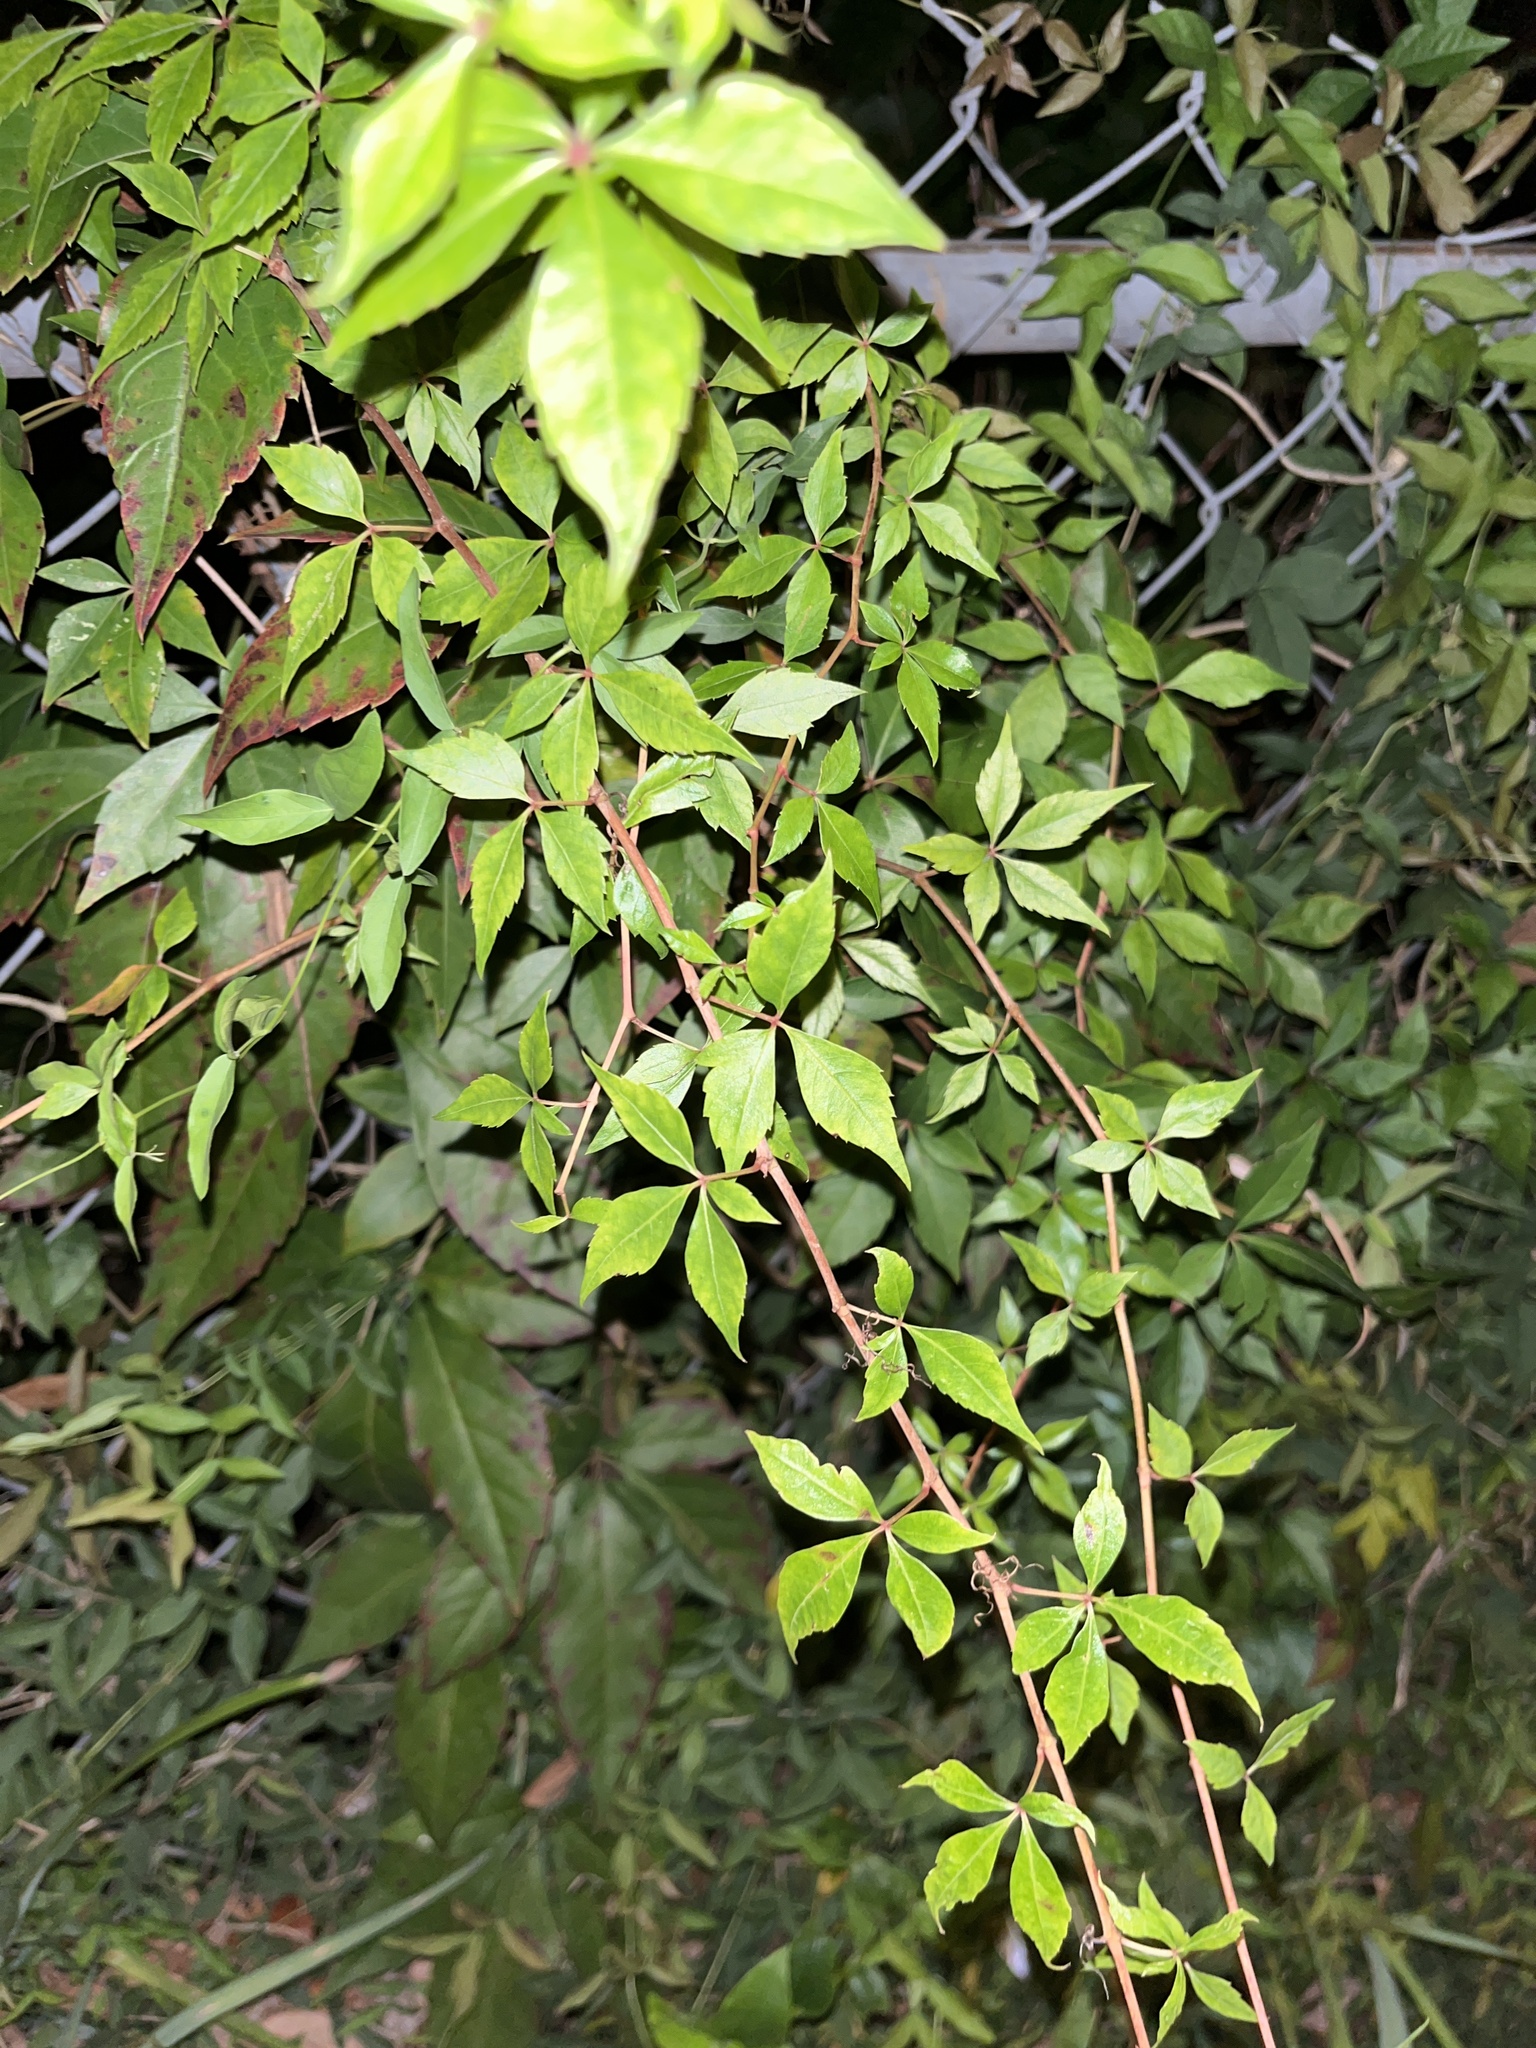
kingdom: Plantae
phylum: Tracheophyta
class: Magnoliopsida
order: Vitales
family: Vitaceae
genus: Parthenocissus
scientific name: Parthenocissus quinquefolia
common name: Virginia-creeper
